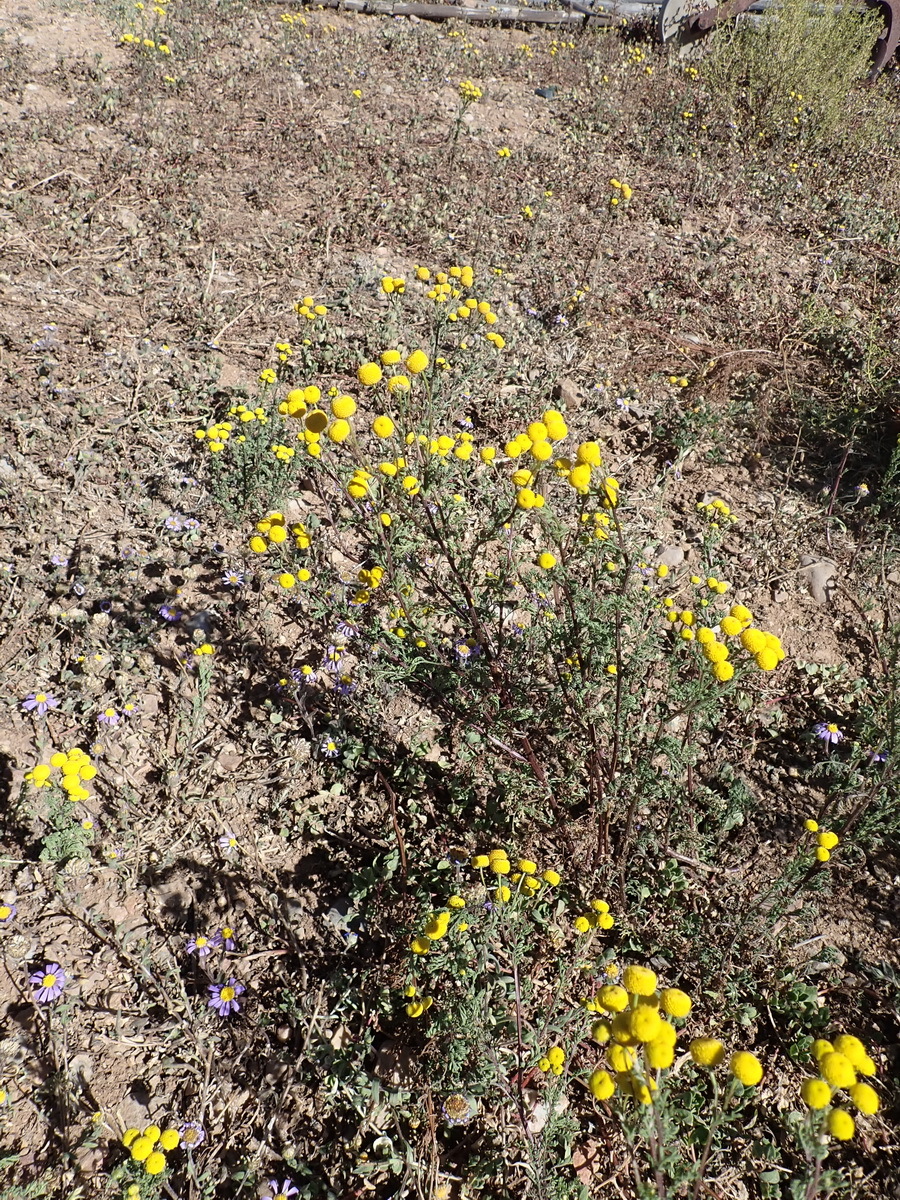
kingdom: Plantae
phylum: Tracheophyta
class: Magnoliopsida
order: Asterales
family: Asteraceae
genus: Oncosiphon
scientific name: Oncosiphon pilulifer
